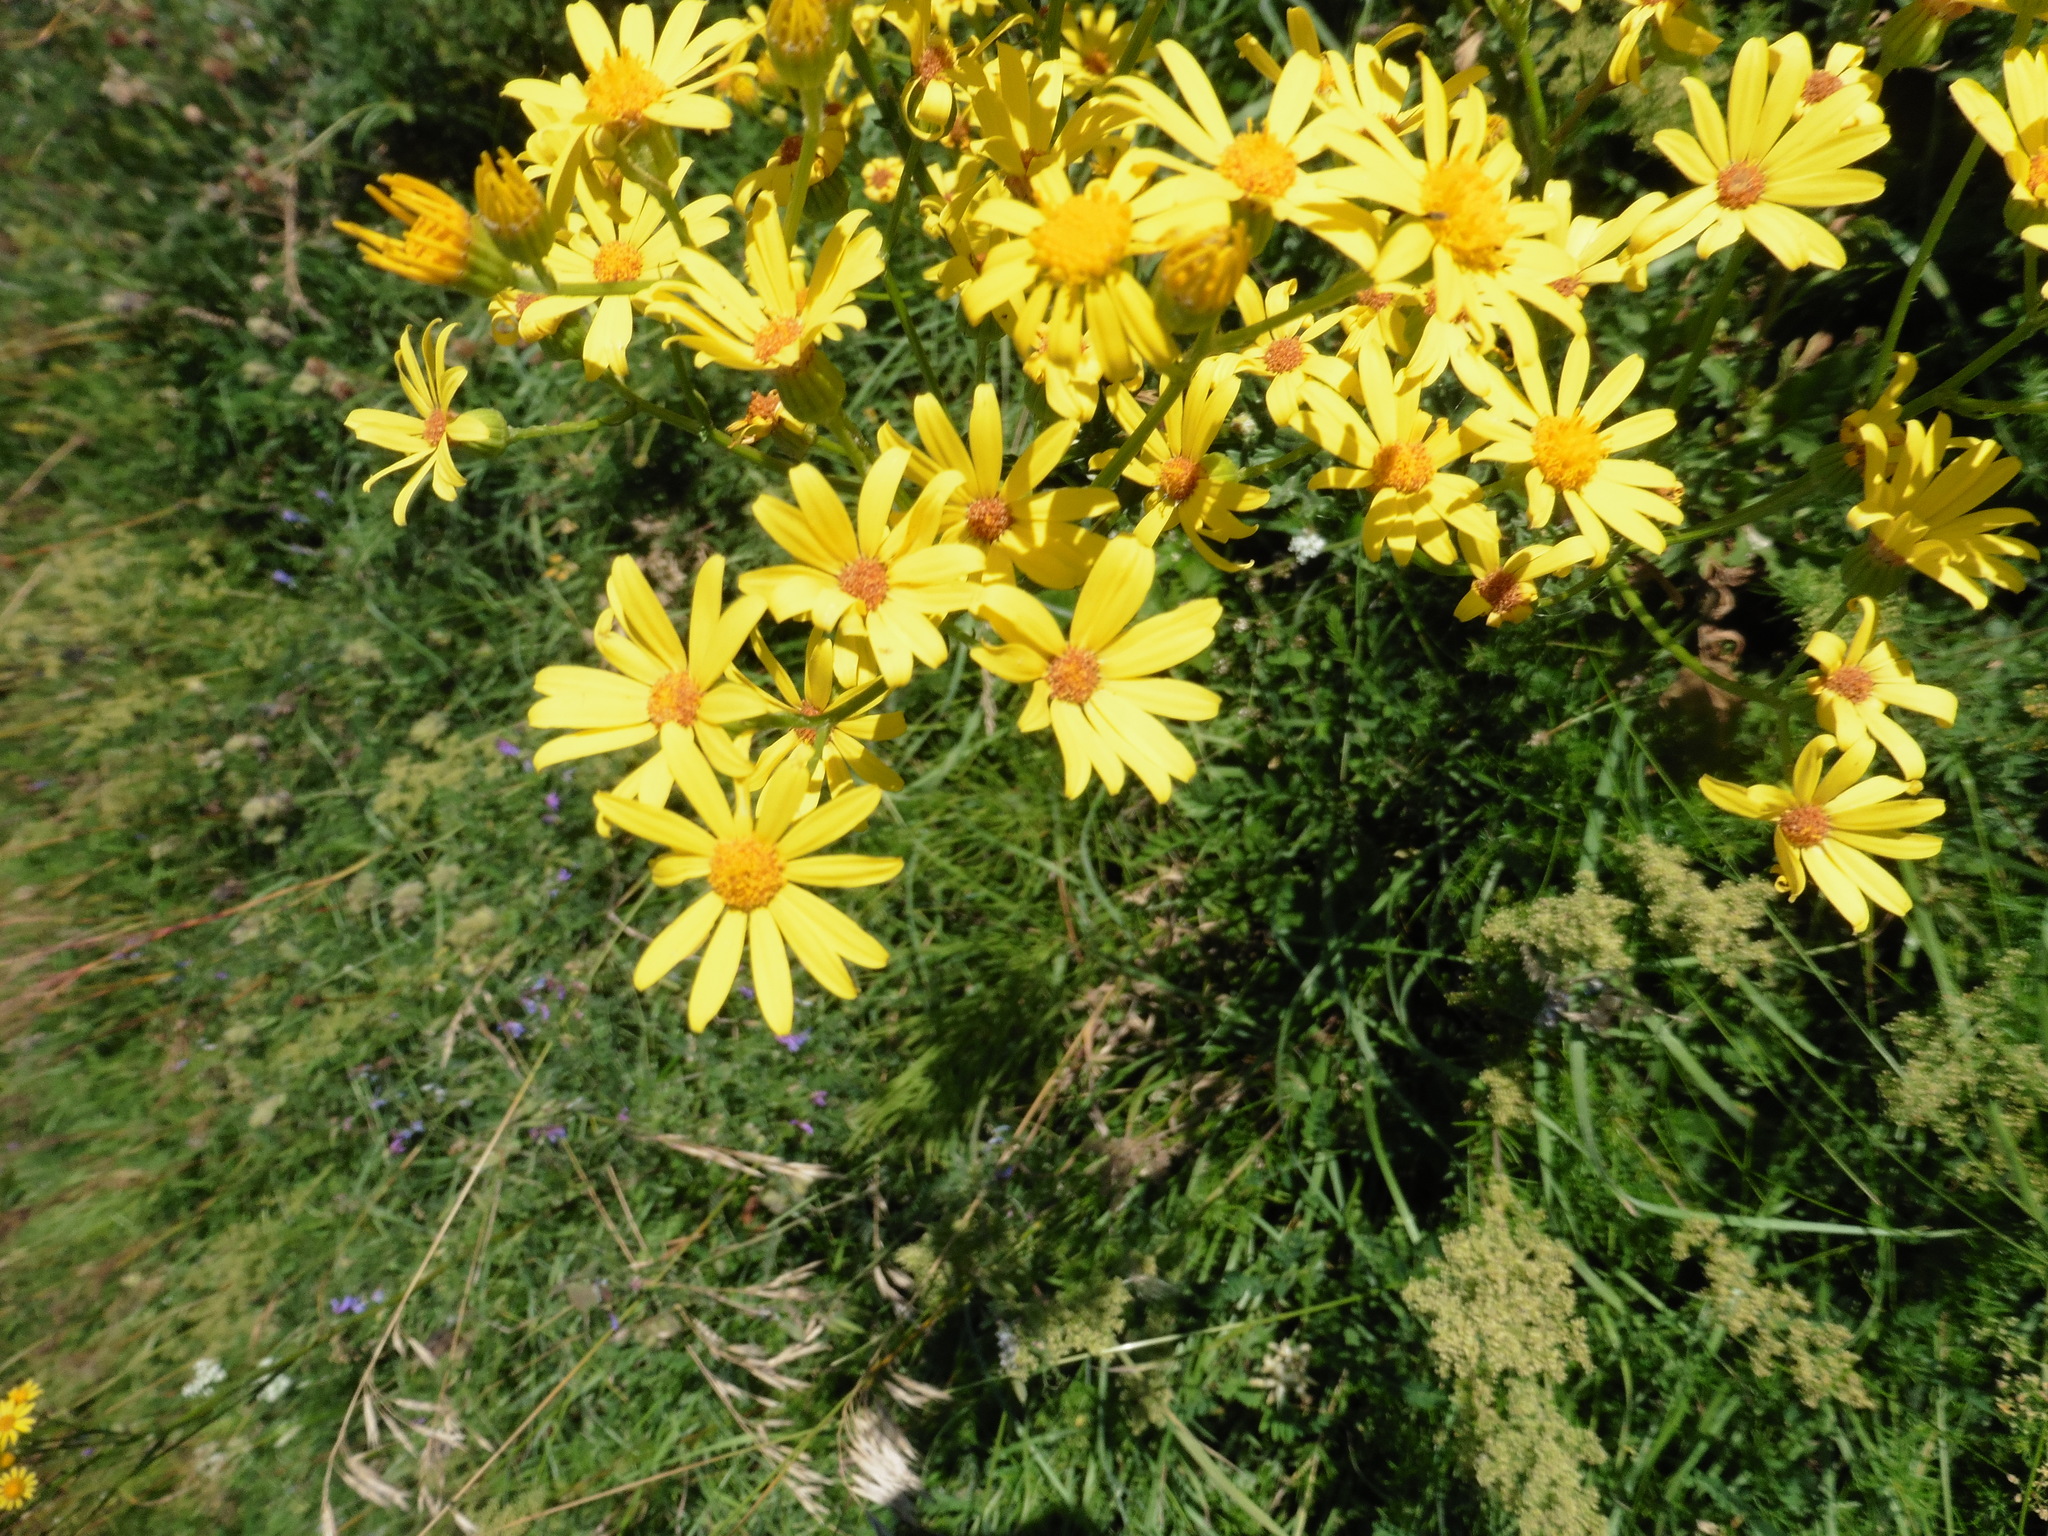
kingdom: Plantae
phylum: Tracheophyta
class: Magnoliopsida
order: Asterales
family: Asteraceae
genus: Jacobaea
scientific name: Jacobaea vulgaris
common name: Stinking willie
